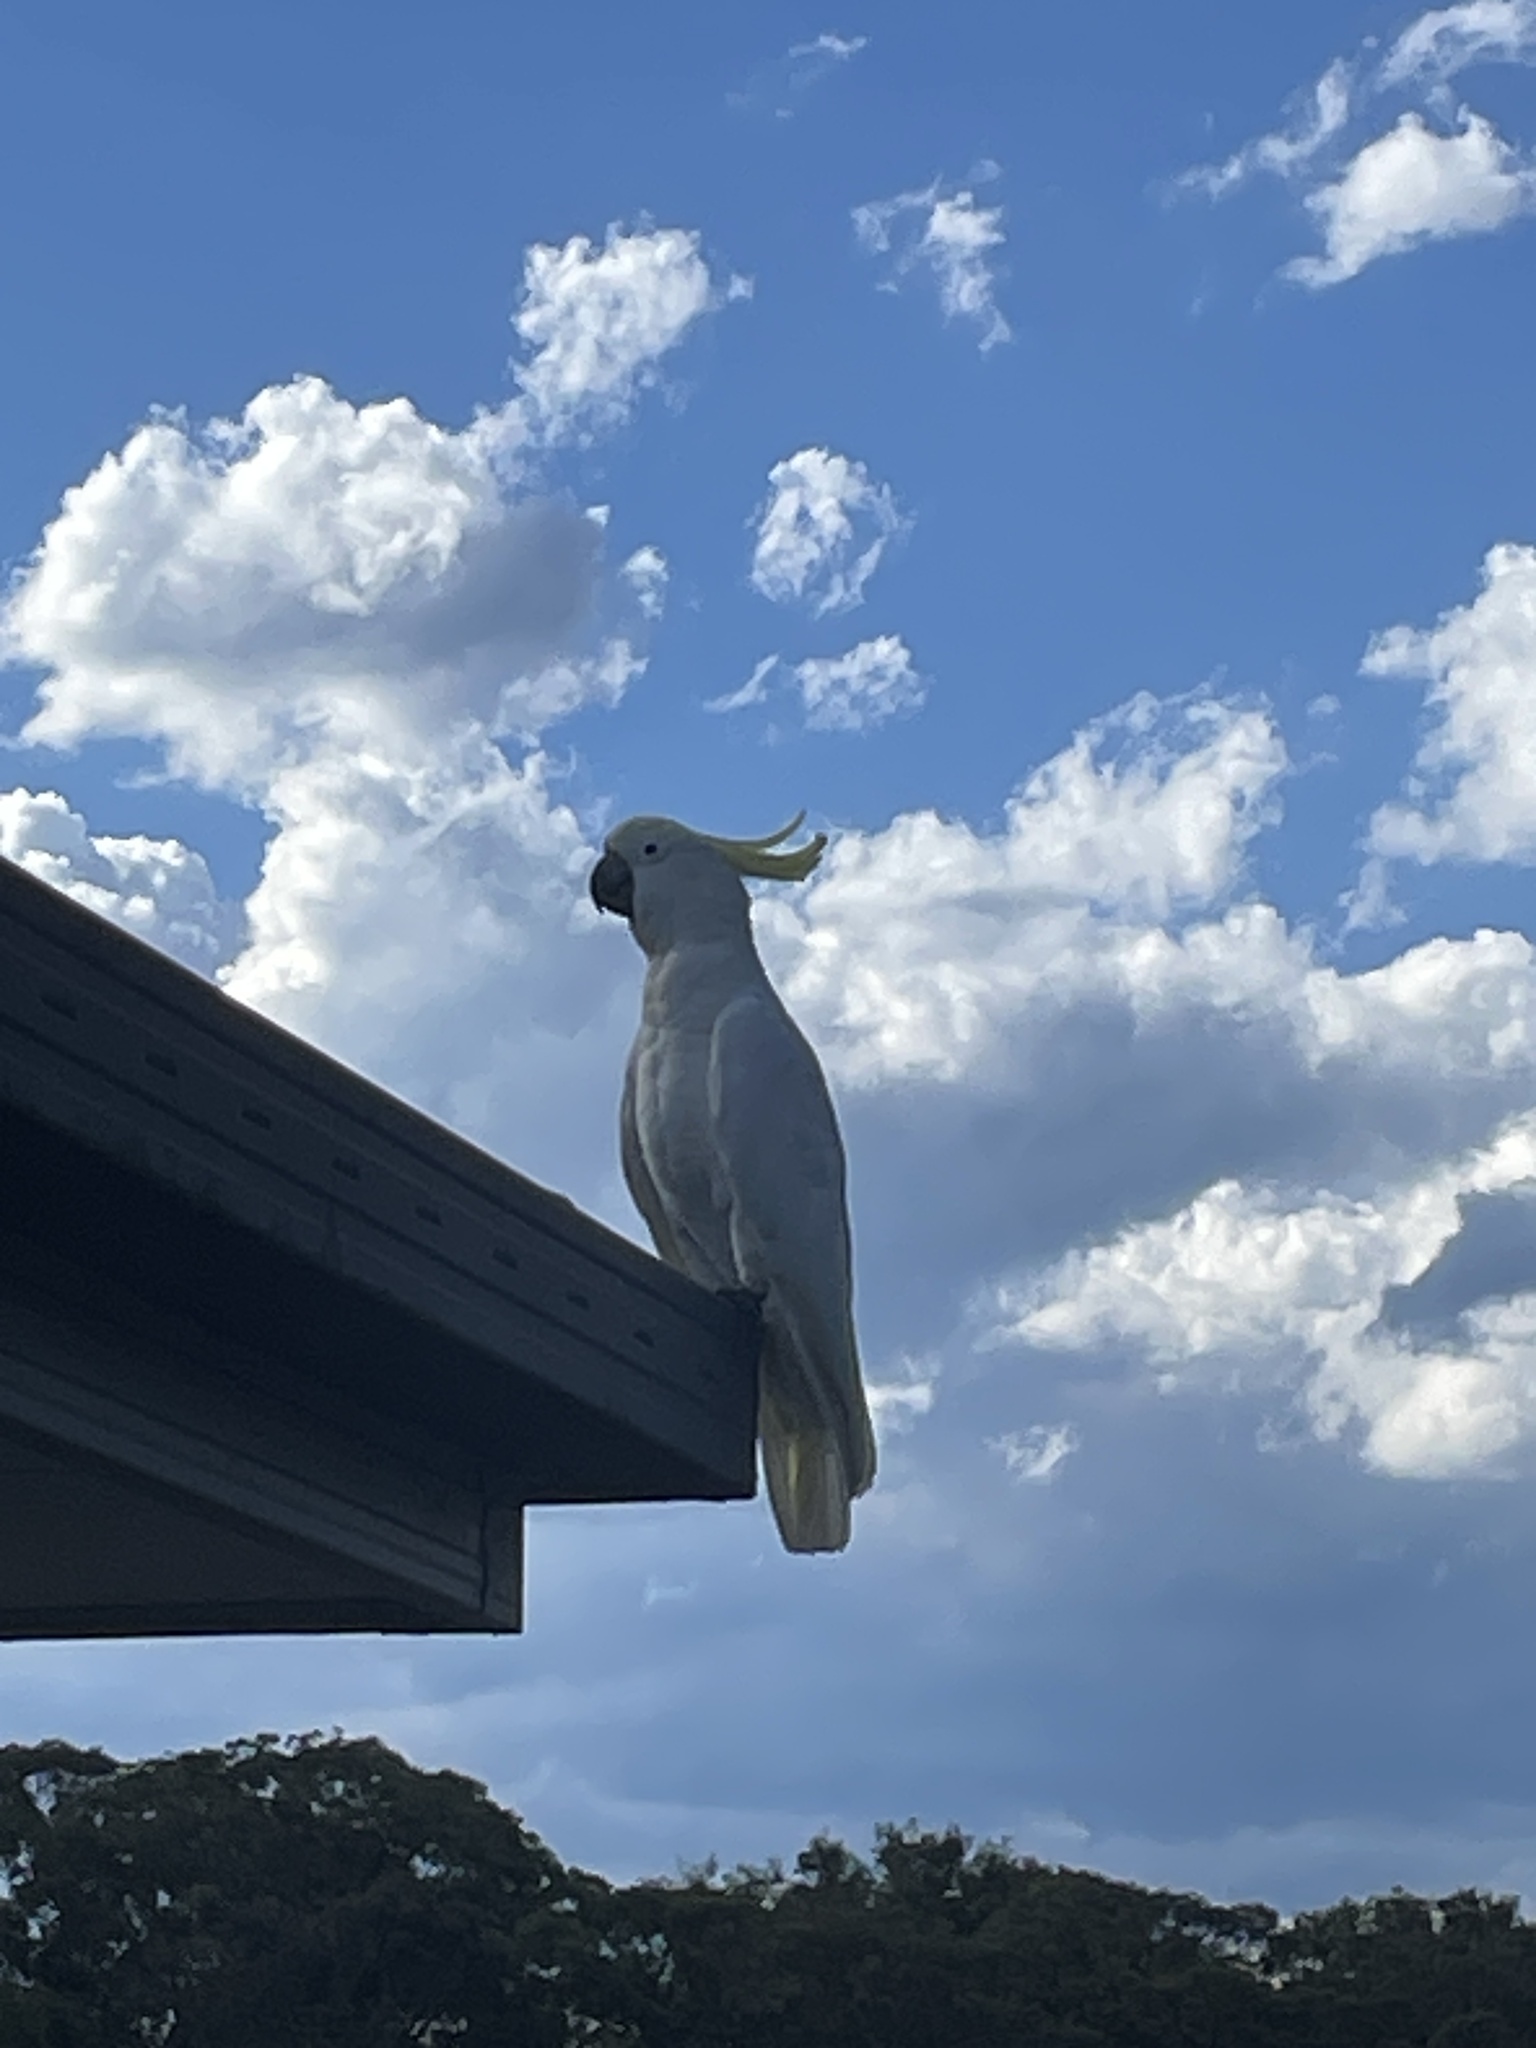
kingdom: Animalia
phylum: Chordata
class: Aves
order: Psittaciformes
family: Psittacidae
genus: Cacatua
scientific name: Cacatua galerita
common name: Sulphur-crested cockatoo
